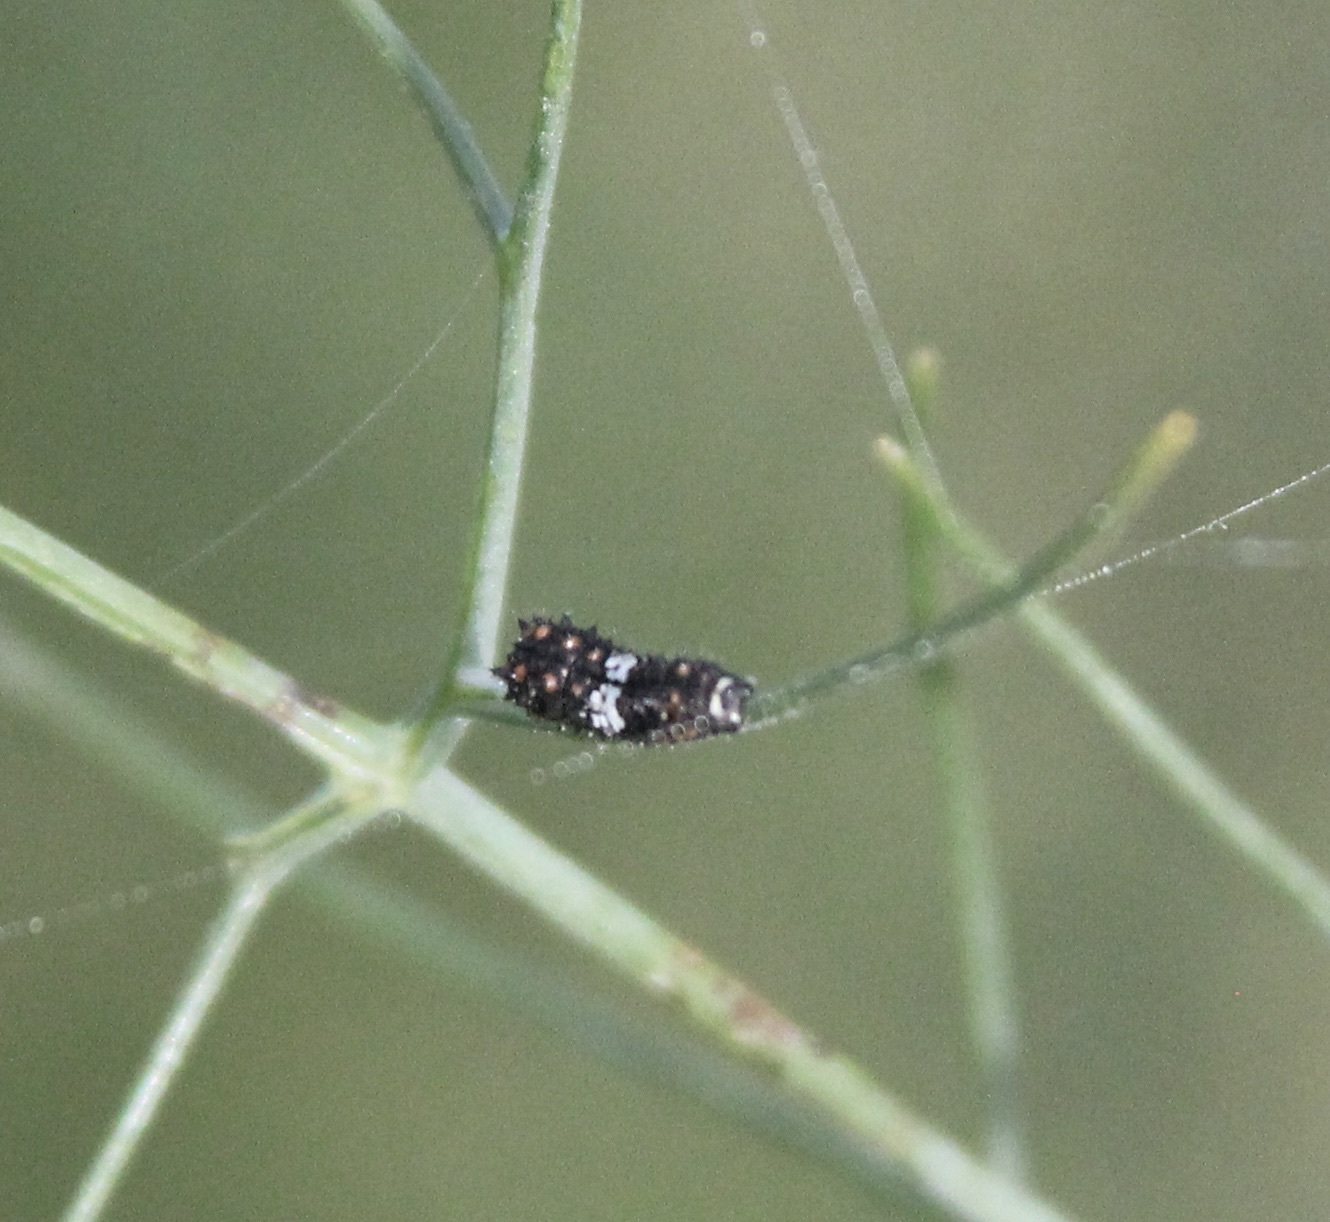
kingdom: Animalia
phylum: Arthropoda
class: Insecta
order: Lepidoptera
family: Papilionidae
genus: Papilio
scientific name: Papilio zelicaon
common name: Anise swallowtail
